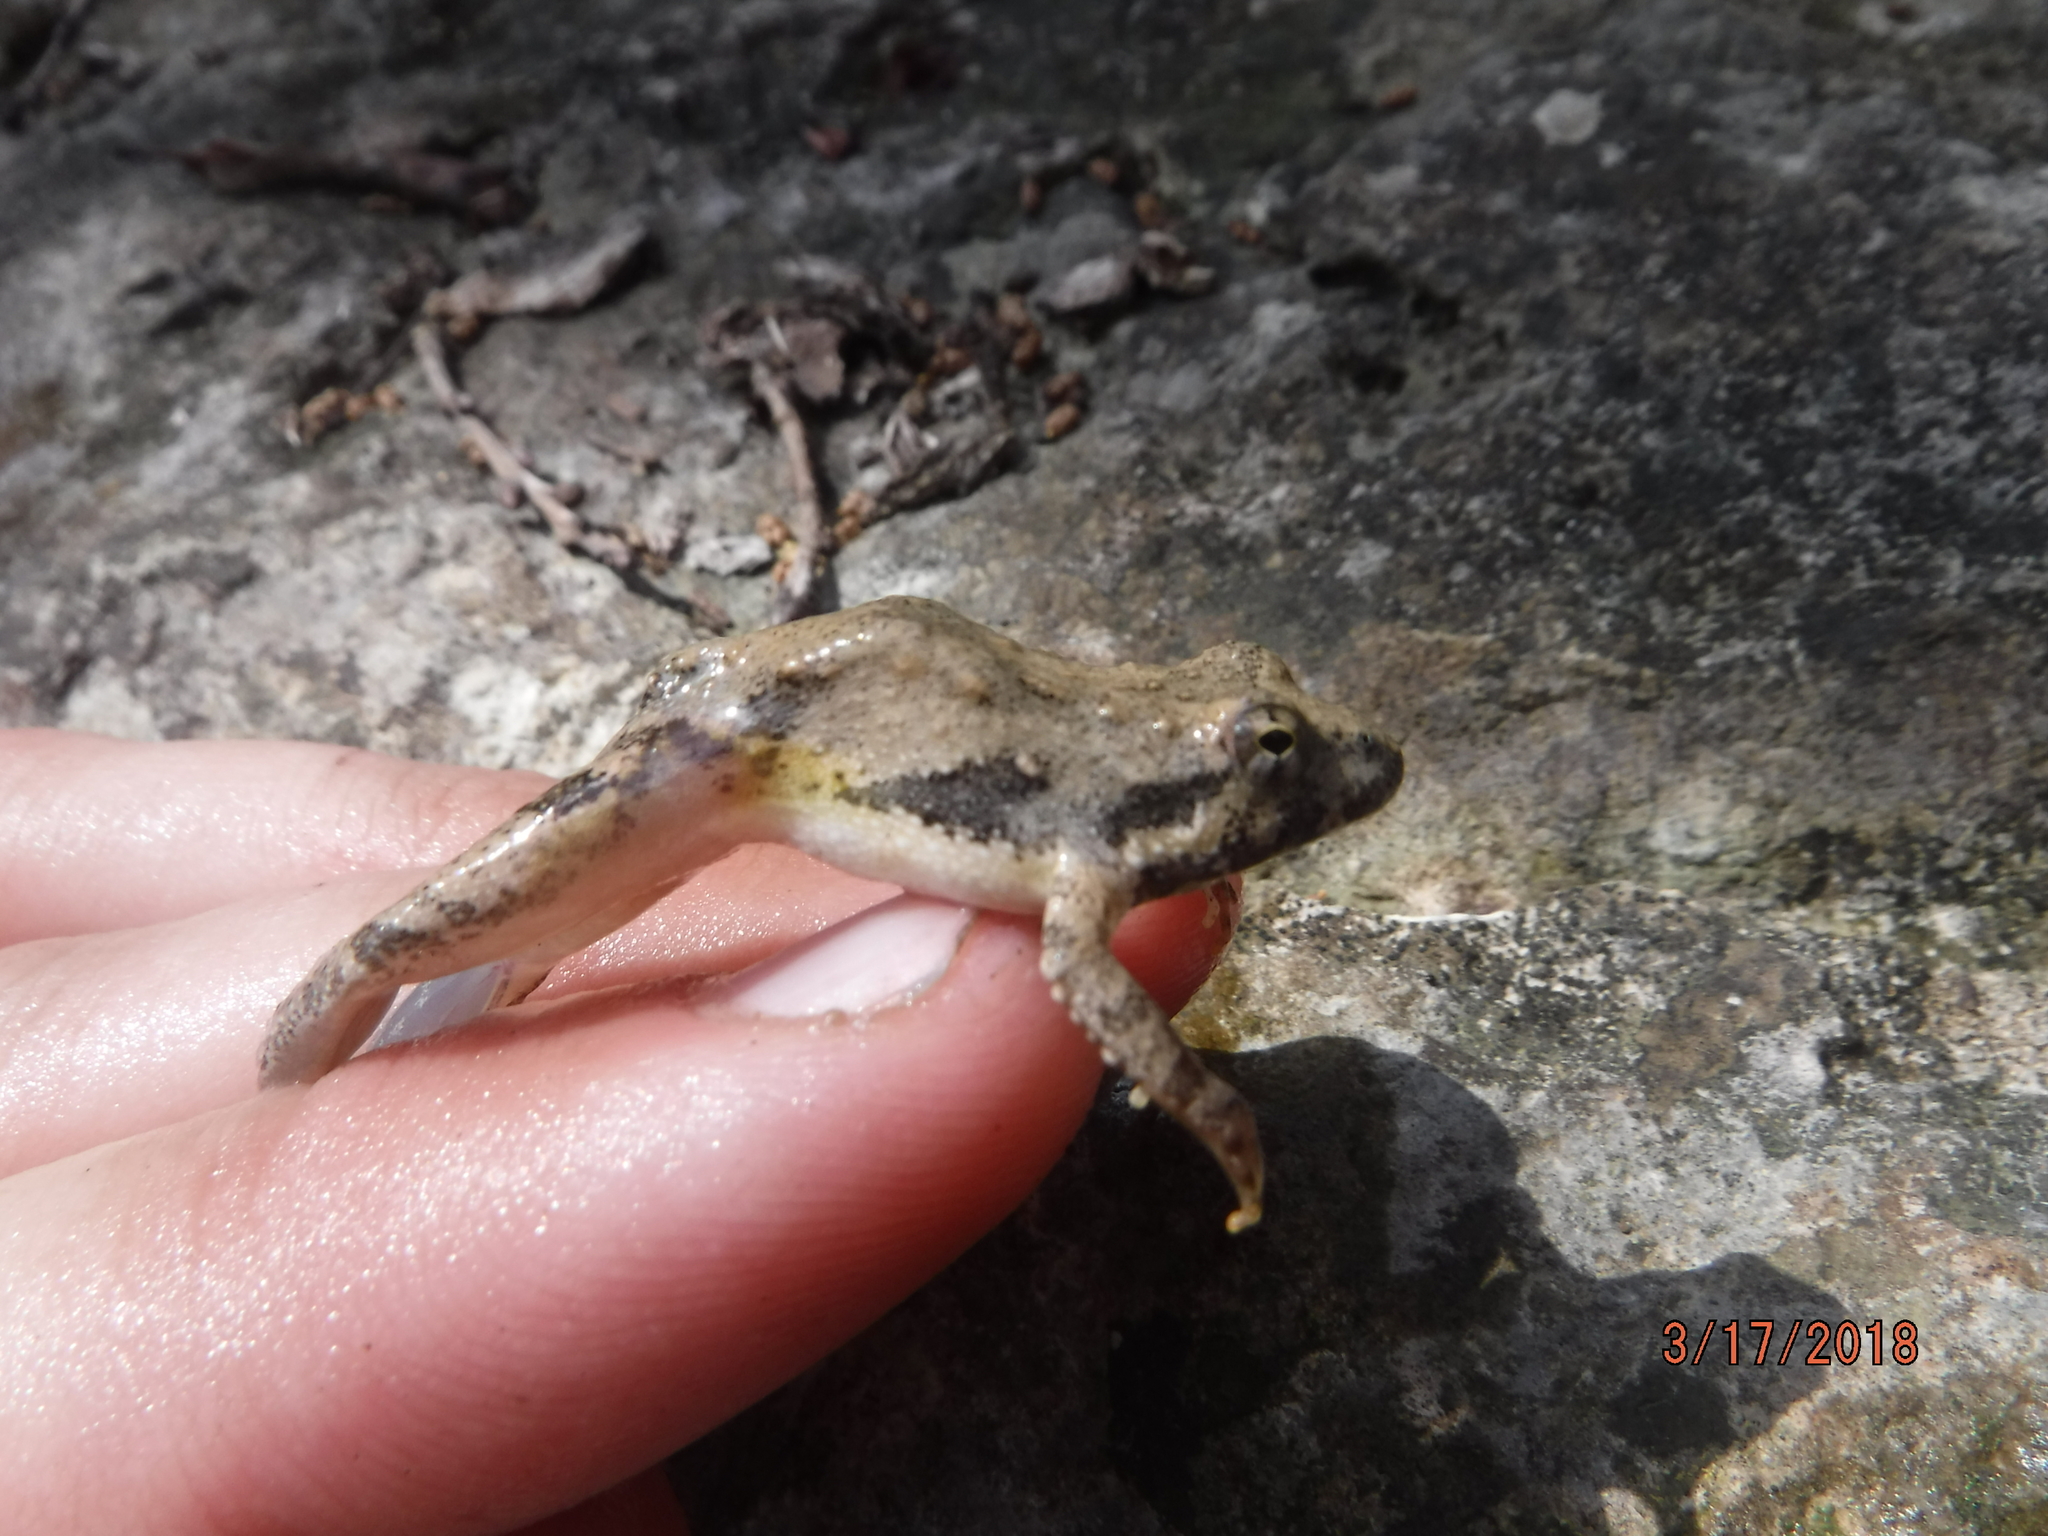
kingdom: Animalia
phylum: Chordata
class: Amphibia
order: Anura
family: Hylidae
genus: Acris
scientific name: Acris blanchardi
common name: Blanchard's cricket frog
